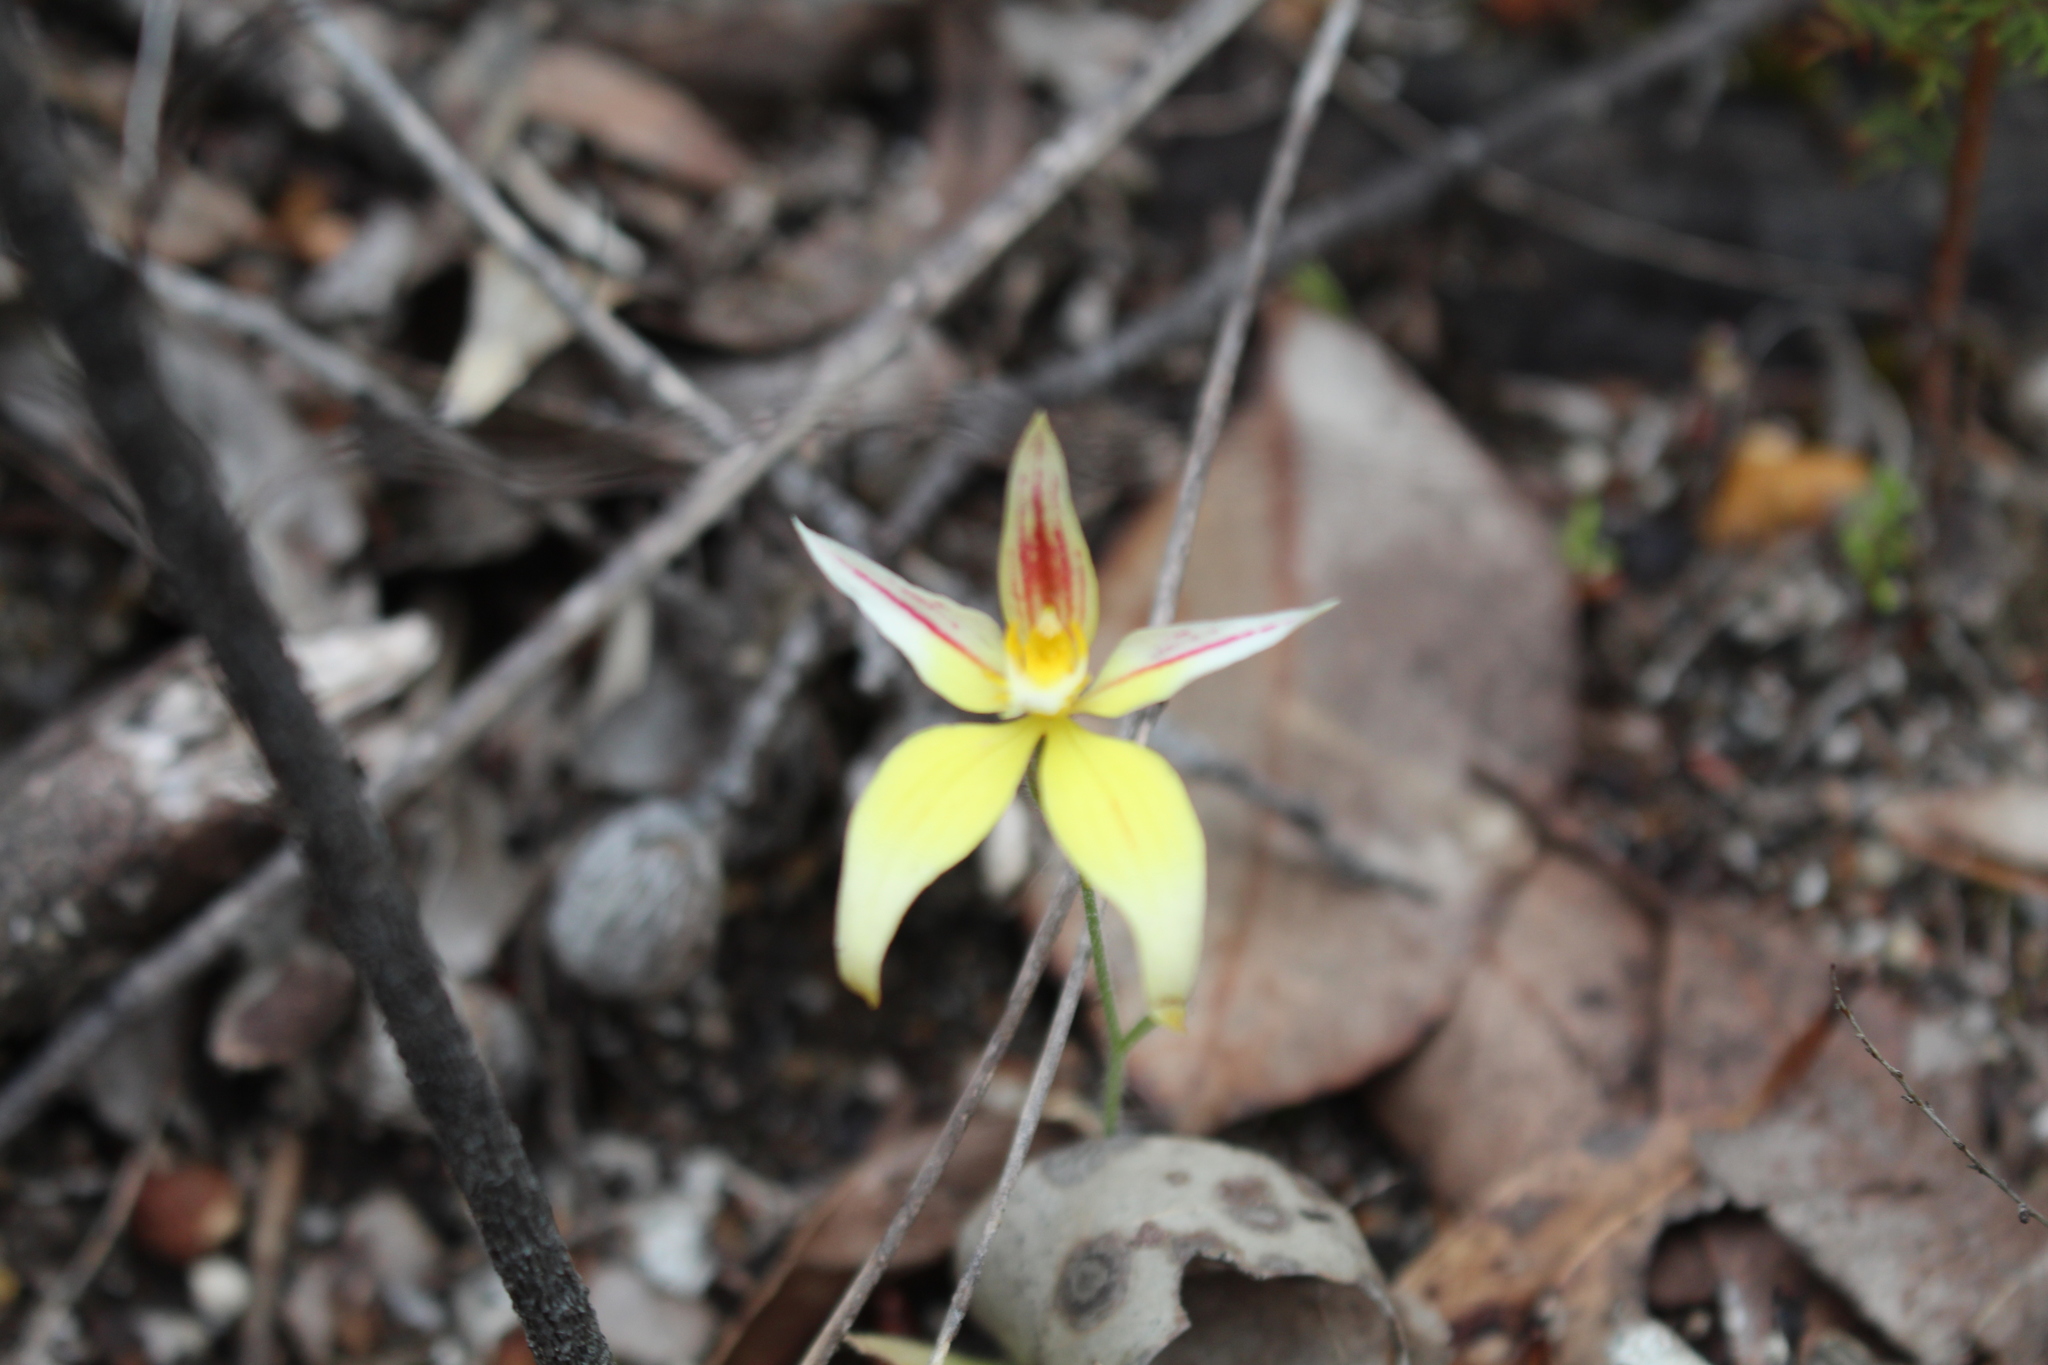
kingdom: Plantae
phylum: Tracheophyta
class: Liliopsida
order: Asparagales
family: Orchidaceae
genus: Caladenia
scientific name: Caladenia flava
